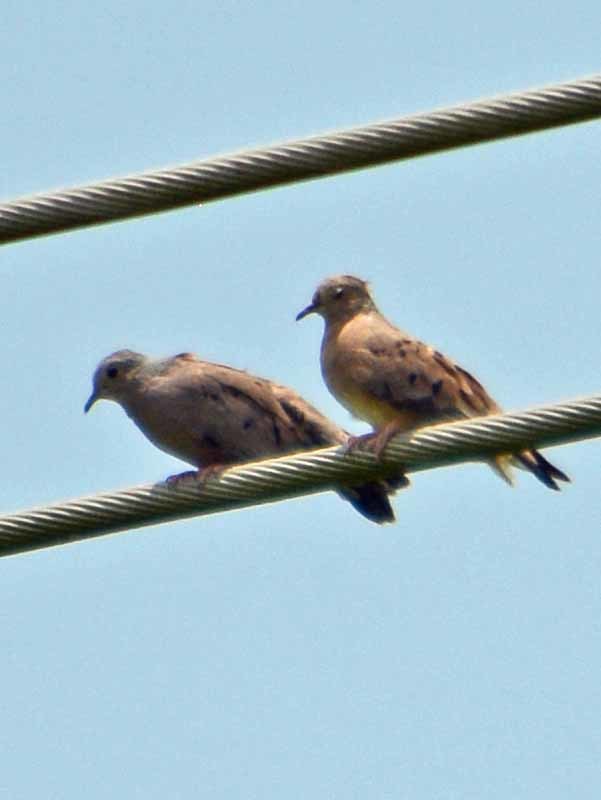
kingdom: Animalia
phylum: Chordata
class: Aves
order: Columbiformes
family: Columbidae
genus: Columbina
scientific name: Columbina talpacoti
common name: Ruddy ground dove
